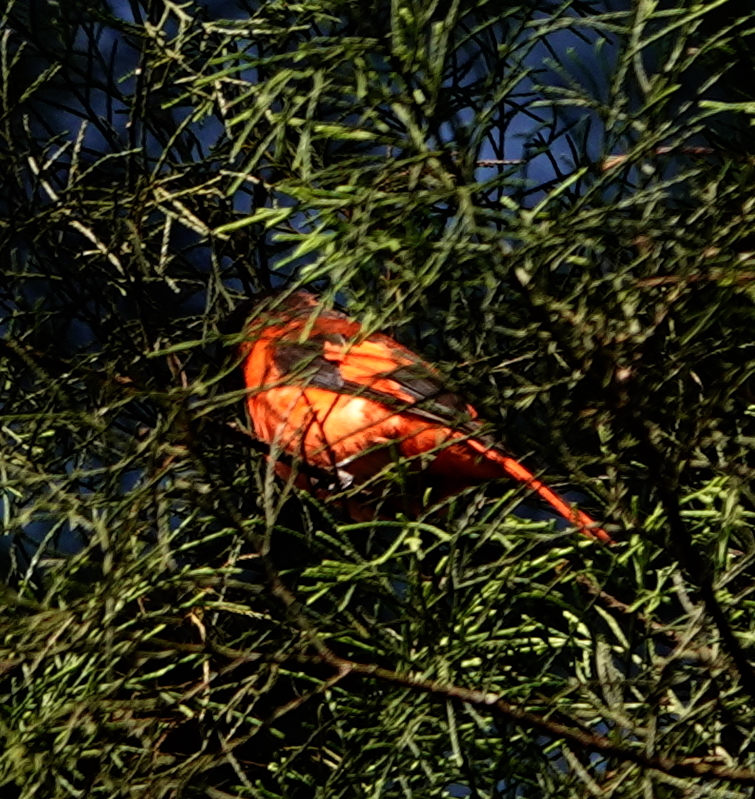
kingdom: Animalia
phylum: Chordata
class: Aves
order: Passeriformes
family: Campephagidae
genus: Pericrocotus
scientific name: Pericrocotus miniatus
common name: Sunda minivet
